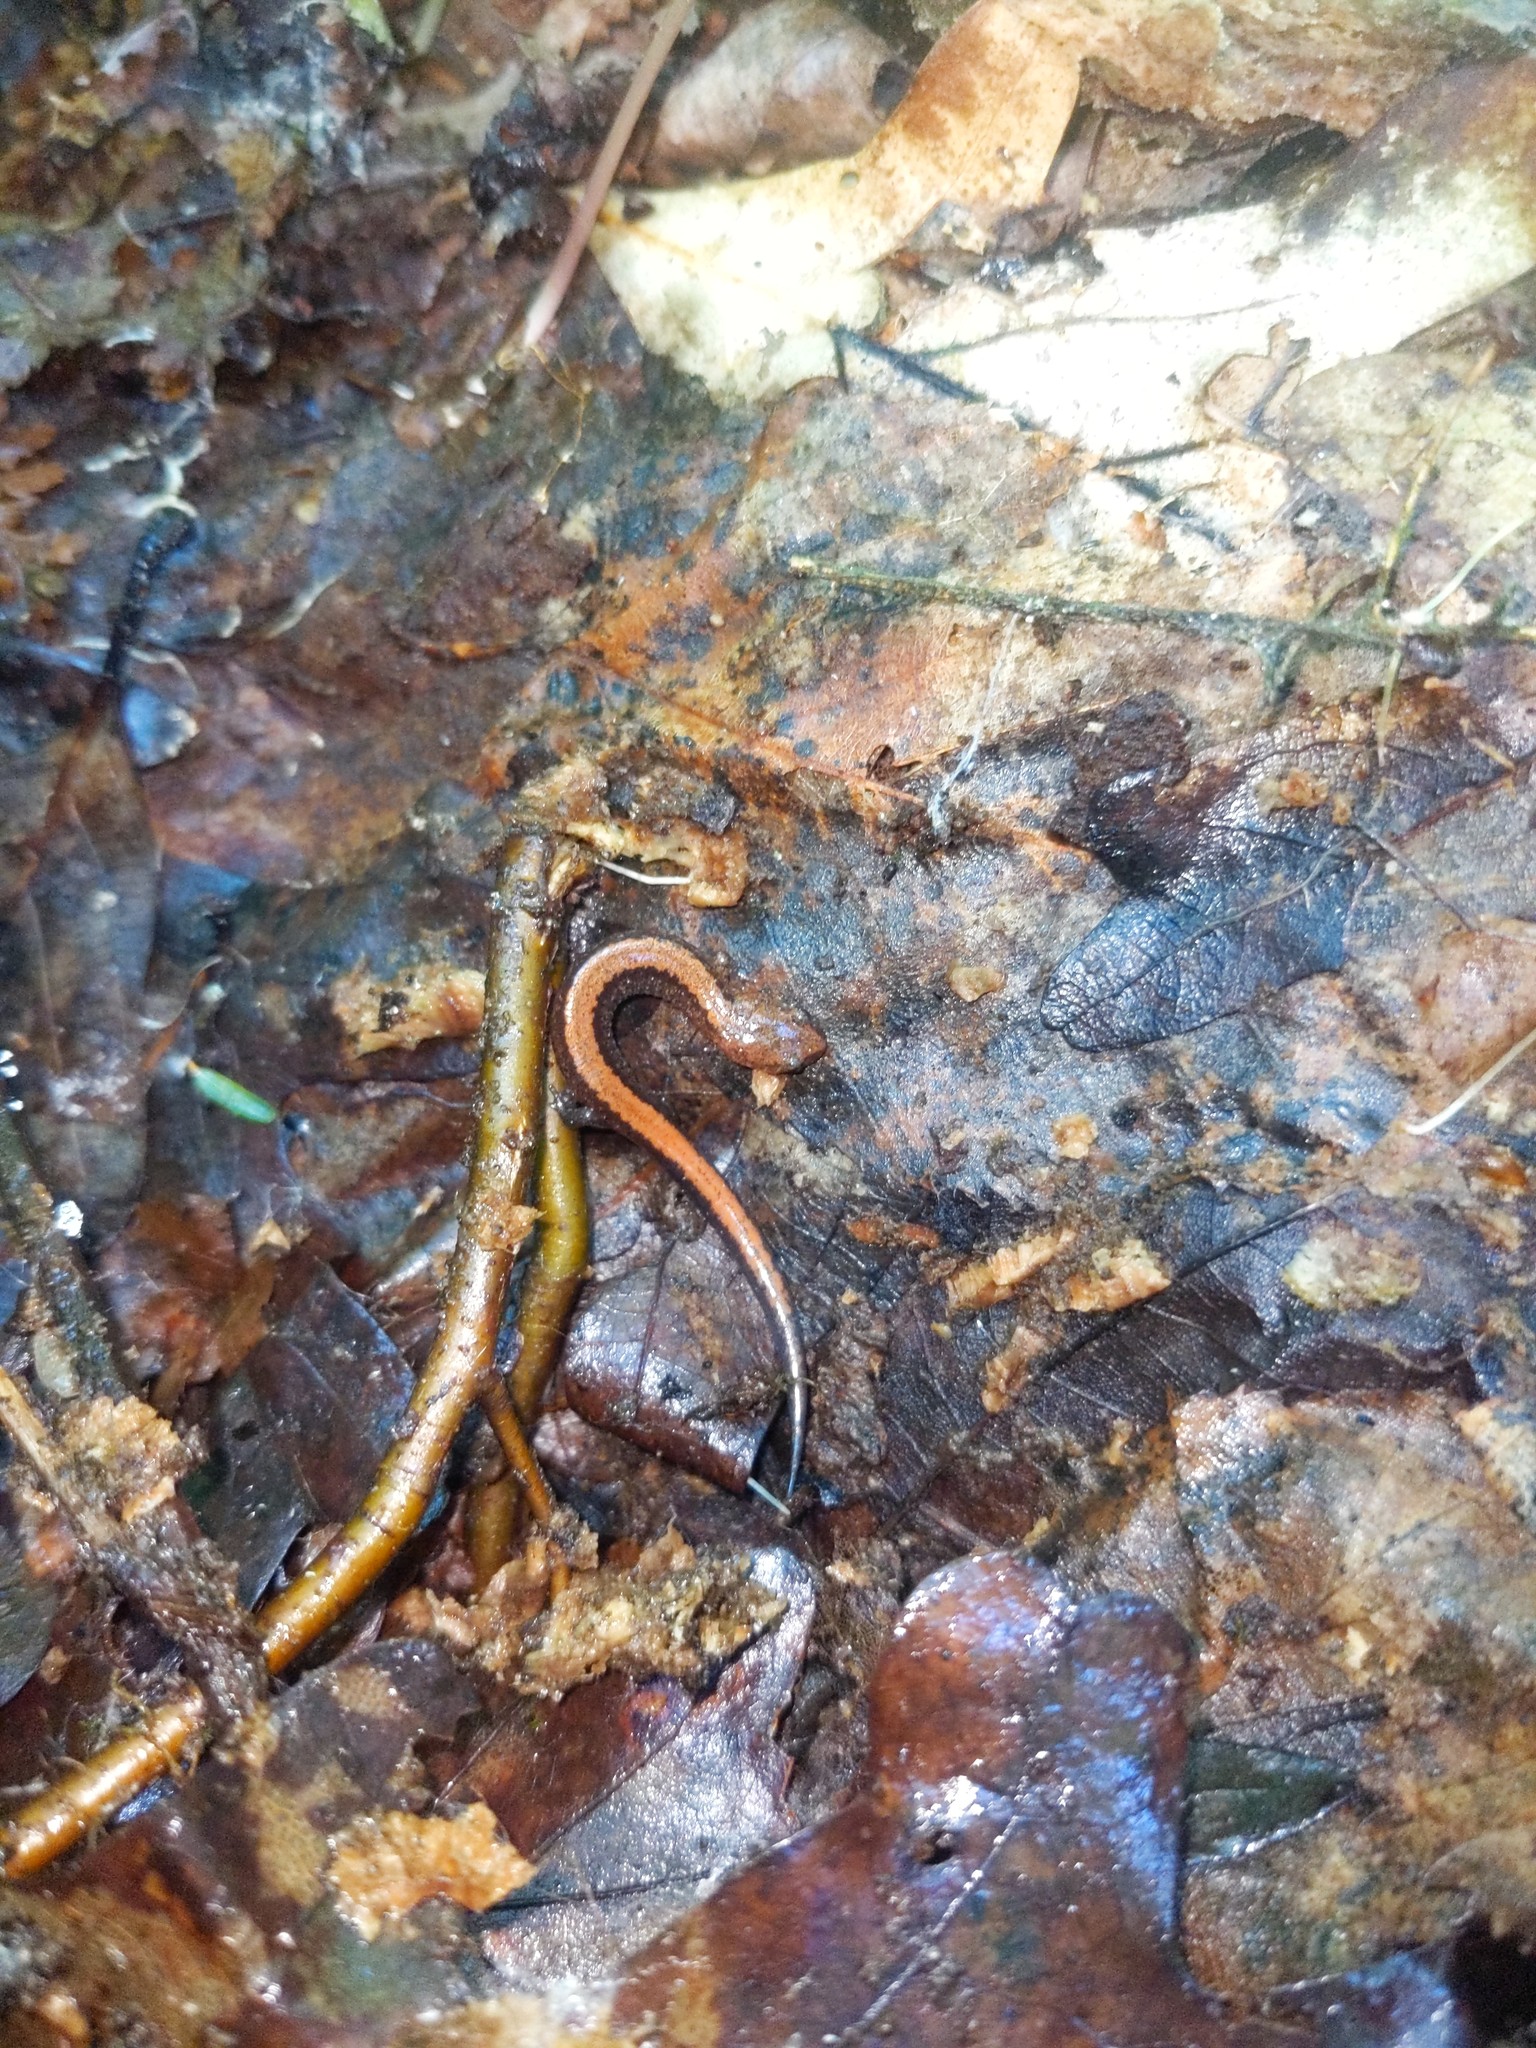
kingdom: Animalia
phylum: Chordata
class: Amphibia
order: Caudata
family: Plethodontidae
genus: Plethodon
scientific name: Plethodon cinereus
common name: Redback salamander
